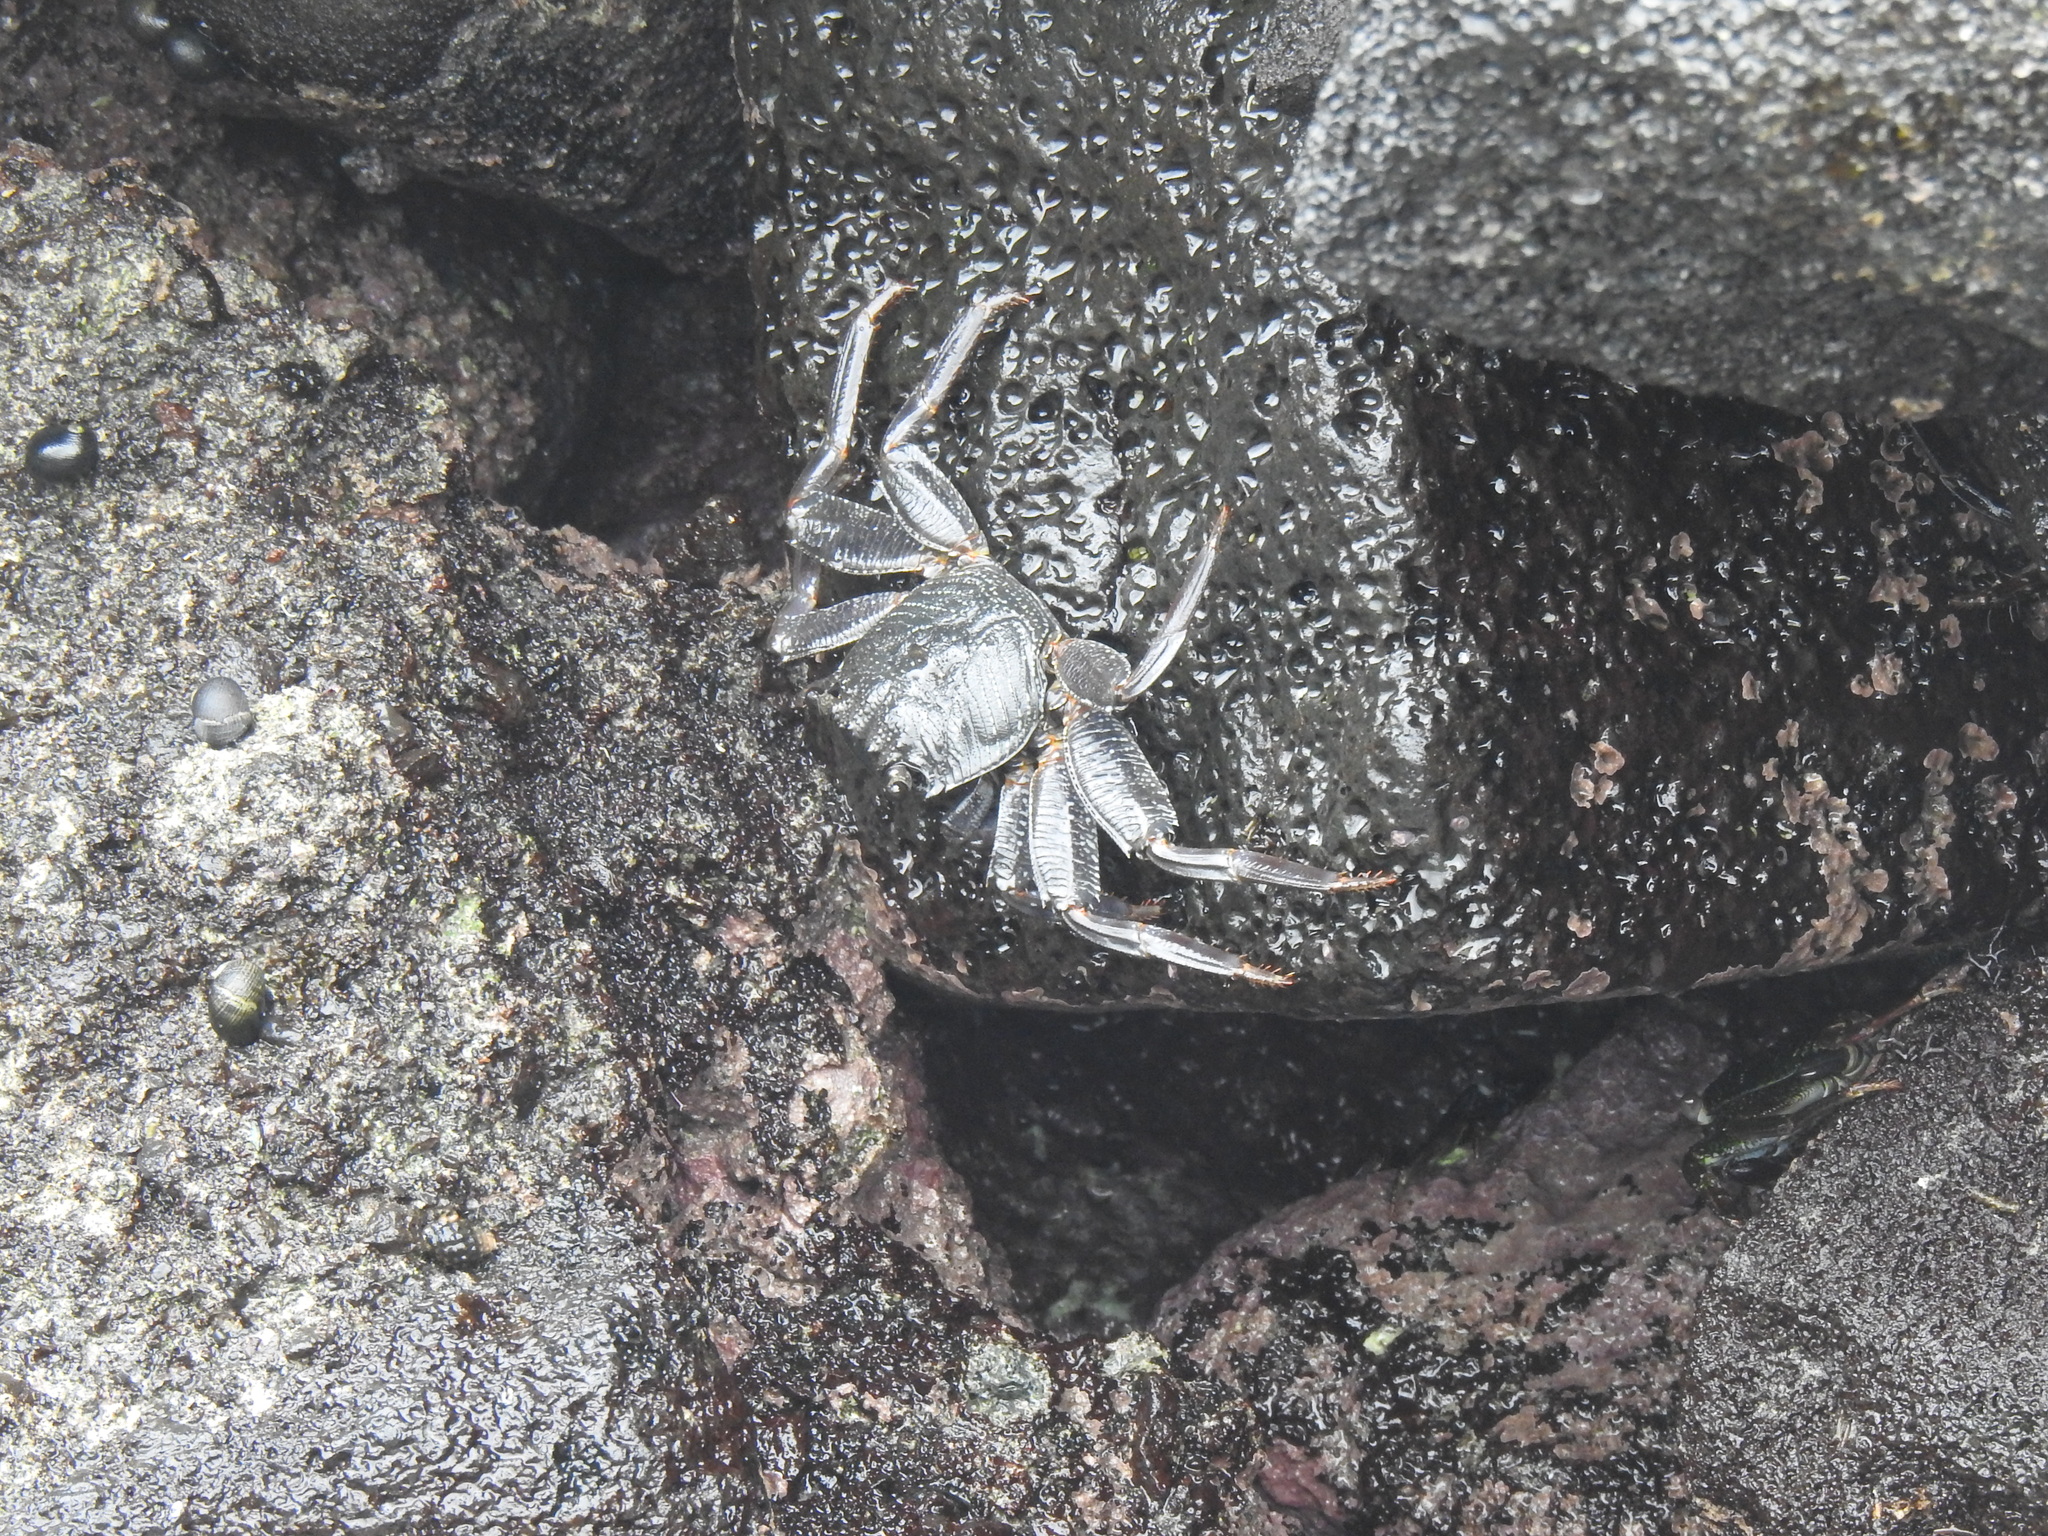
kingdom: Animalia
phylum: Arthropoda
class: Malacostraca
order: Decapoda
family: Grapsidae
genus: Grapsus
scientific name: Grapsus tenuicrustatus
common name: Natal lightfoot crab
